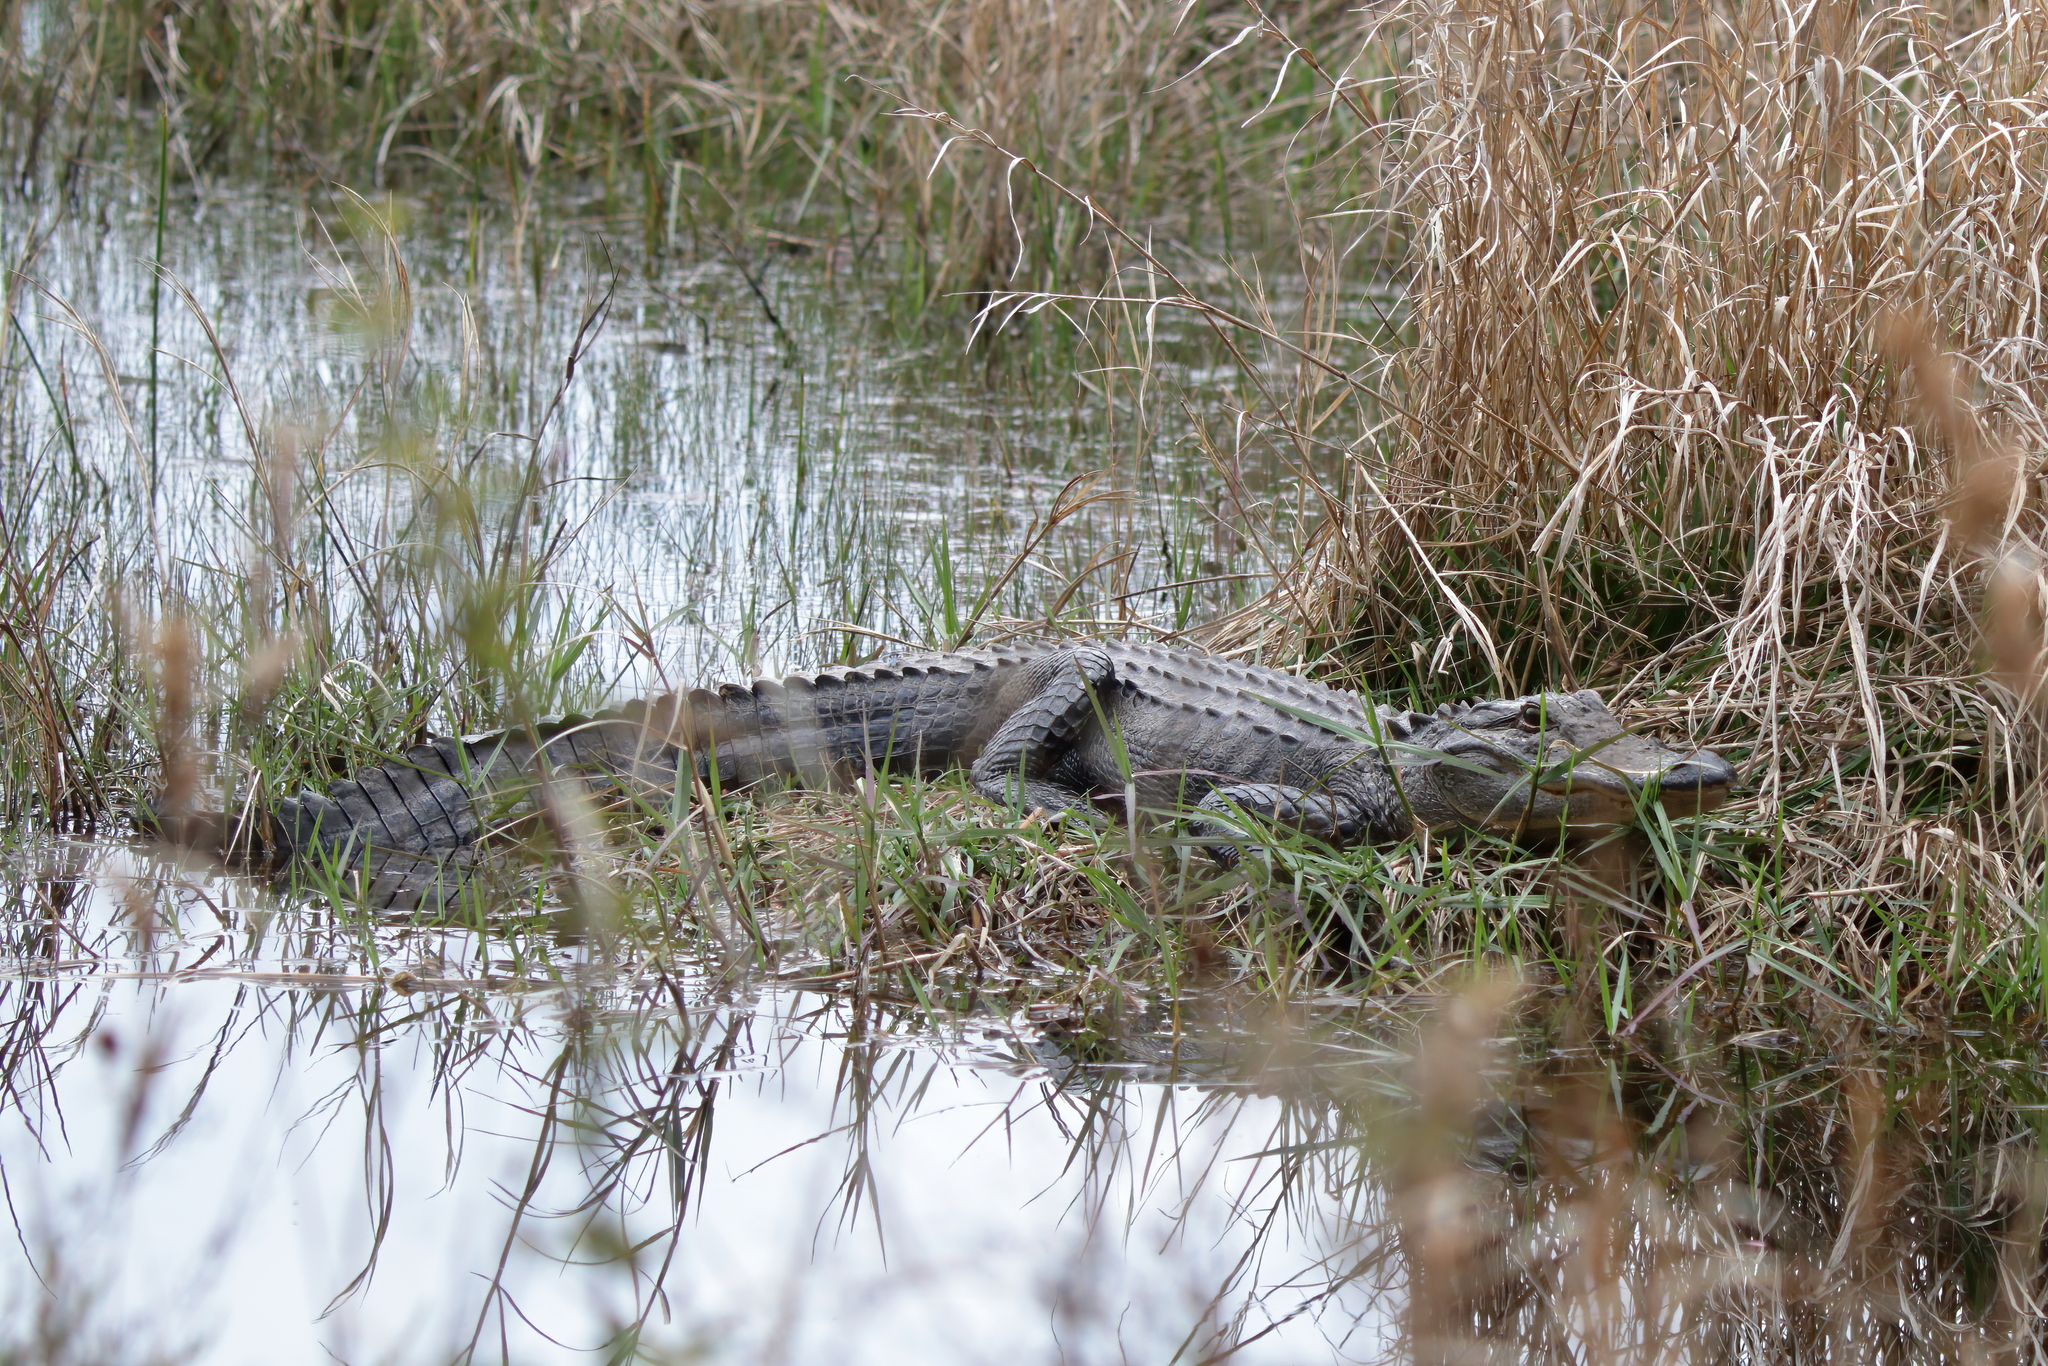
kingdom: Animalia
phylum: Chordata
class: Crocodylia
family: Alligatoridae
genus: Alligator
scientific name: Alligator mississippiensis
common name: American alligator
